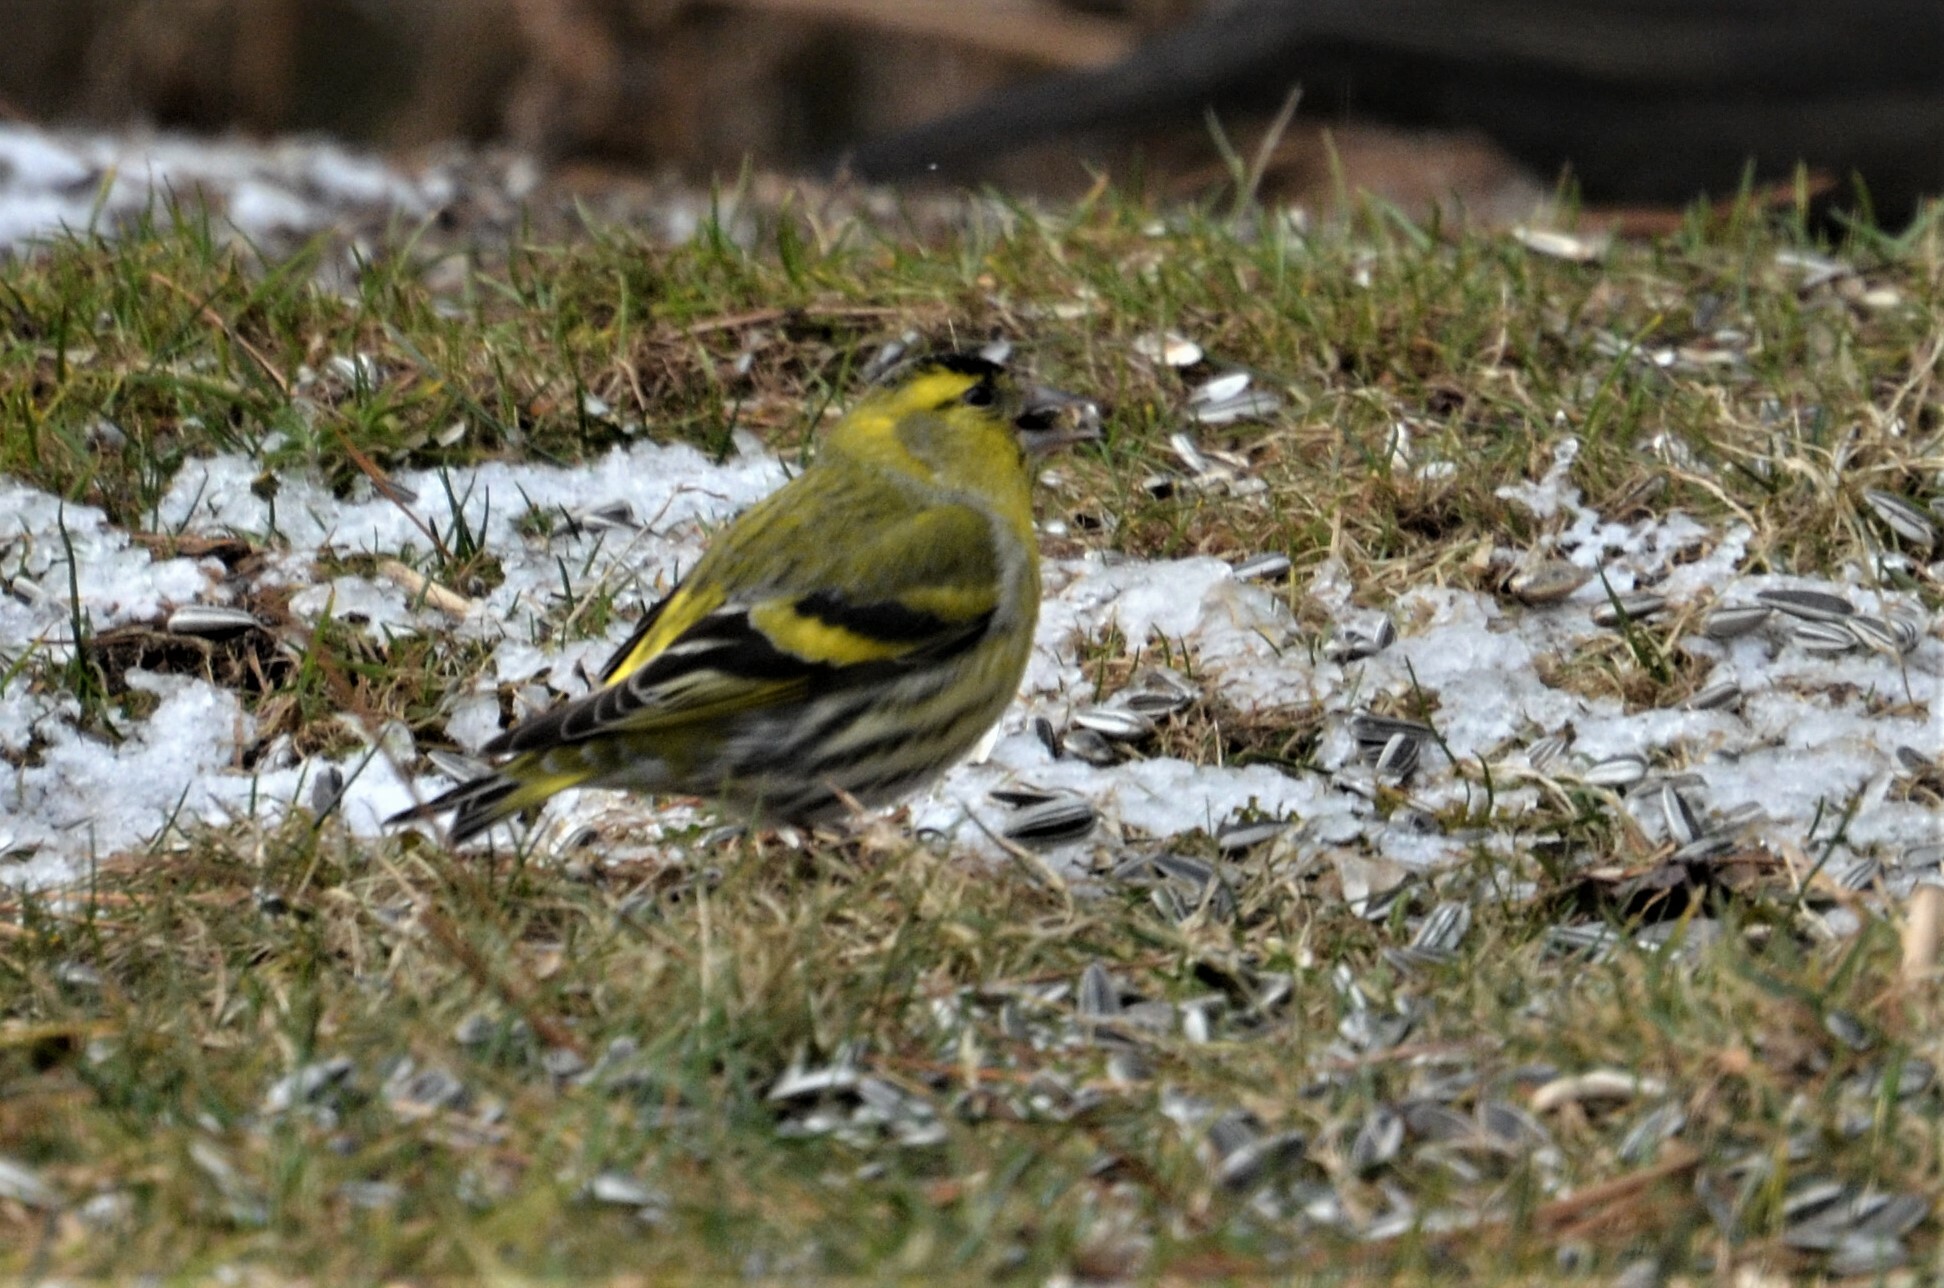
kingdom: Animalia
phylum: Chordata
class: Aves
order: Passeriformes
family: Fringillidae
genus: Spinus
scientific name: Spinus spinus
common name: Eurasian siskin
